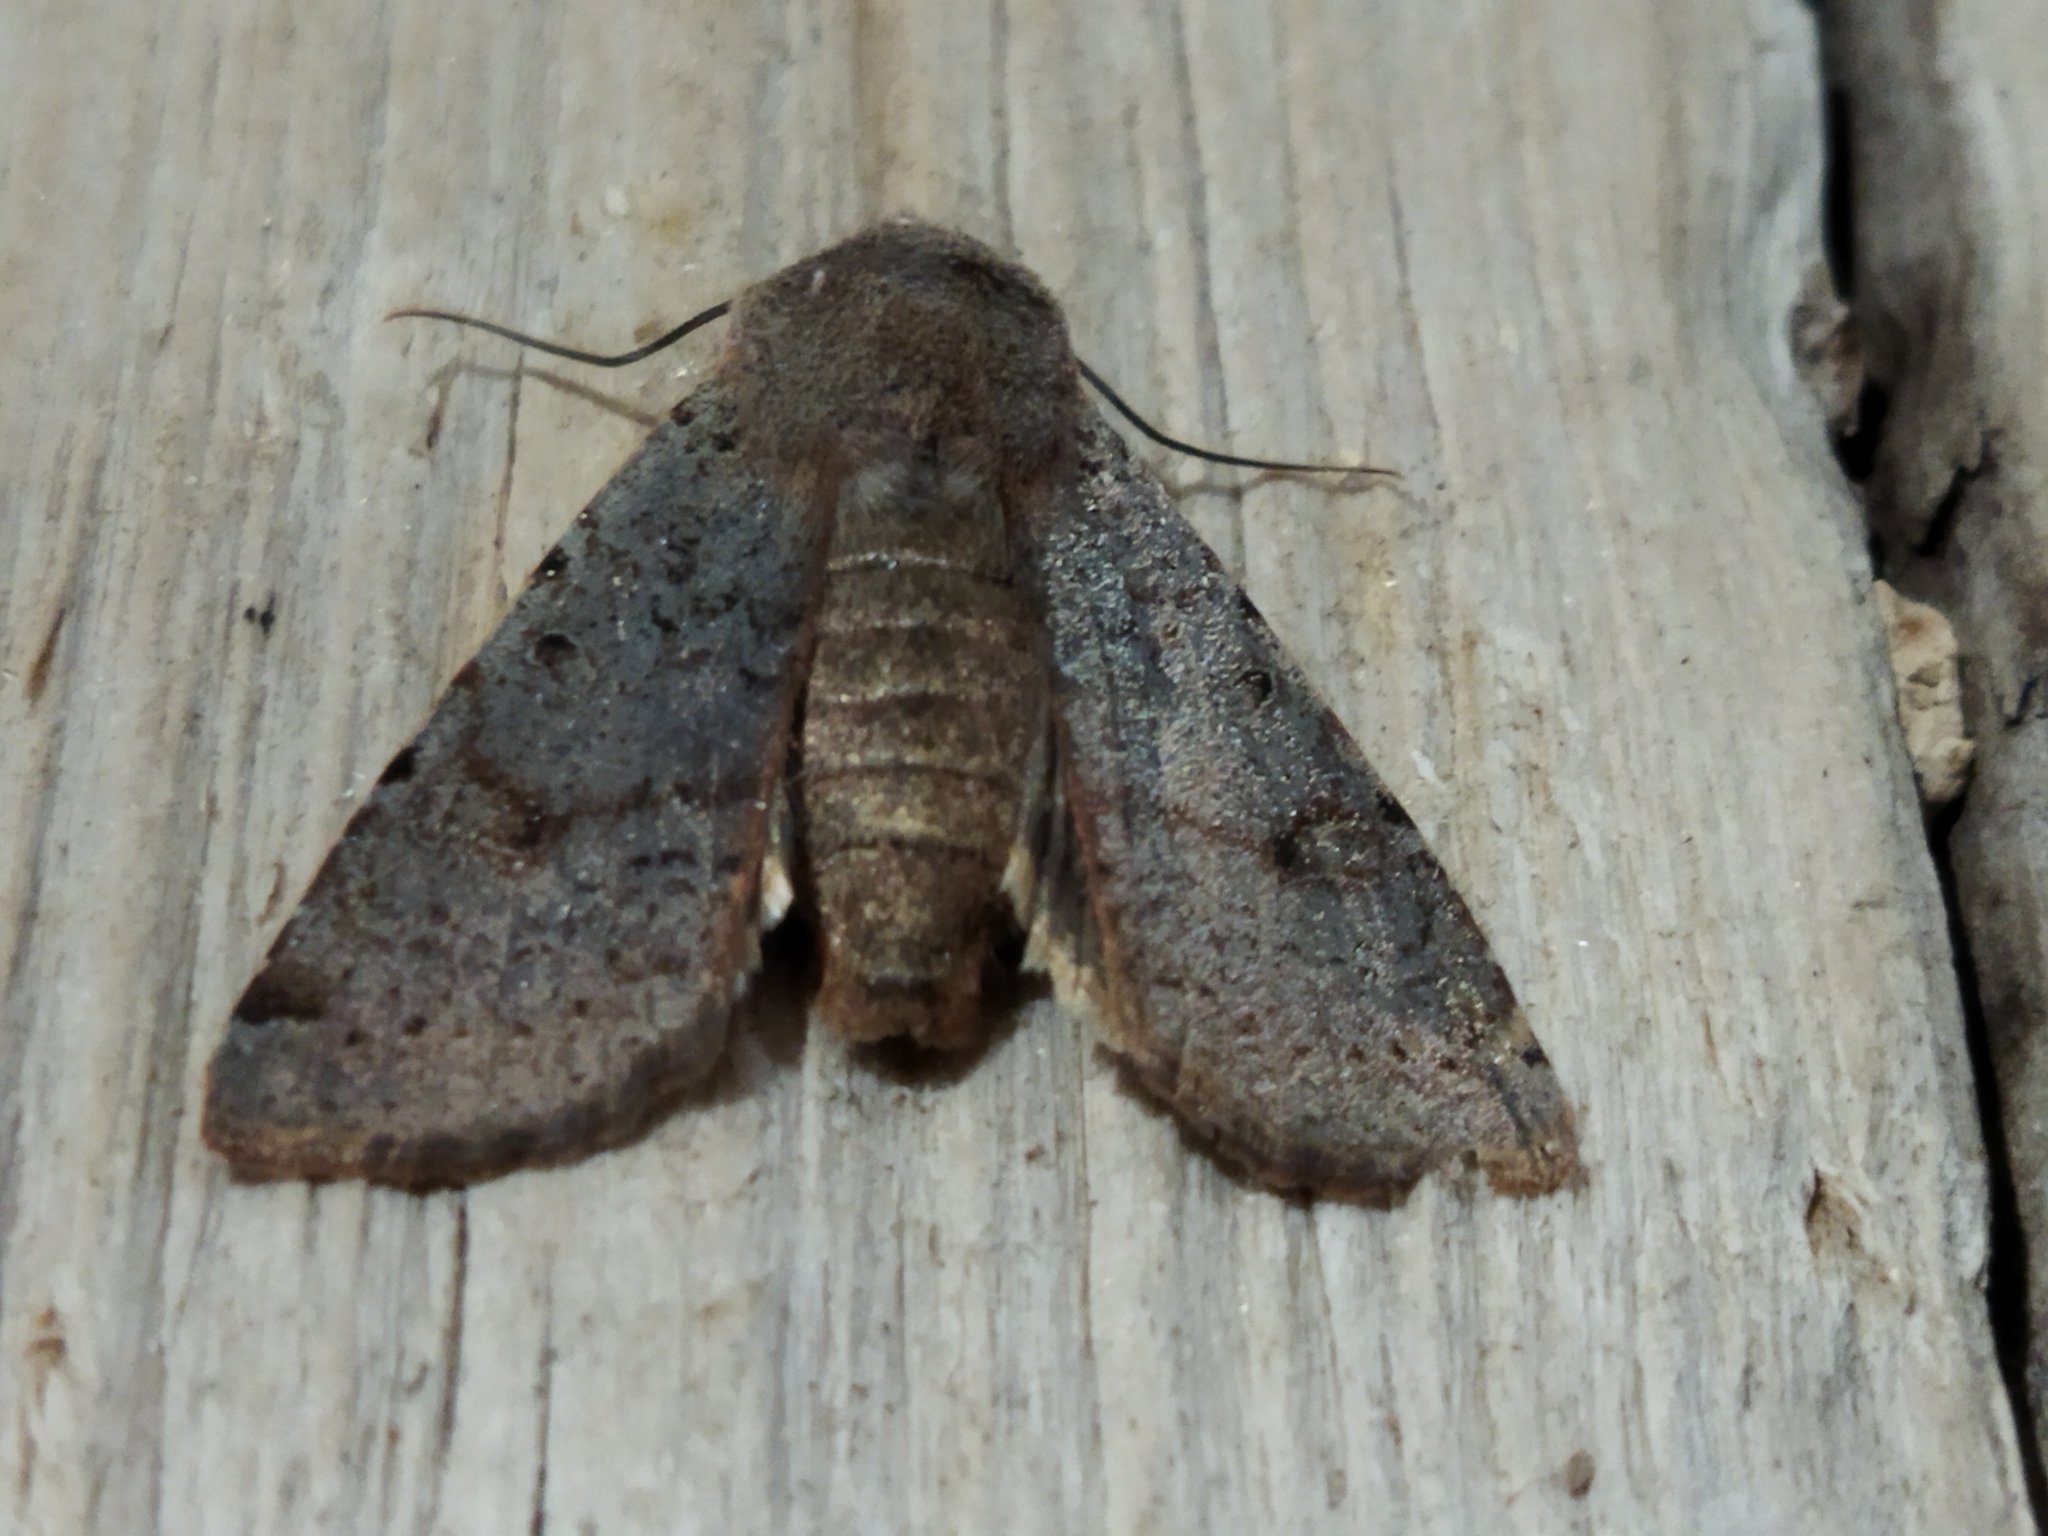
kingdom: Animalia
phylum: Arthropoda
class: Insecta
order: Lepidoptera
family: Noctuidae
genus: Agrochola
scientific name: Agrochola lychnidis
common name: Beaded chestnut
